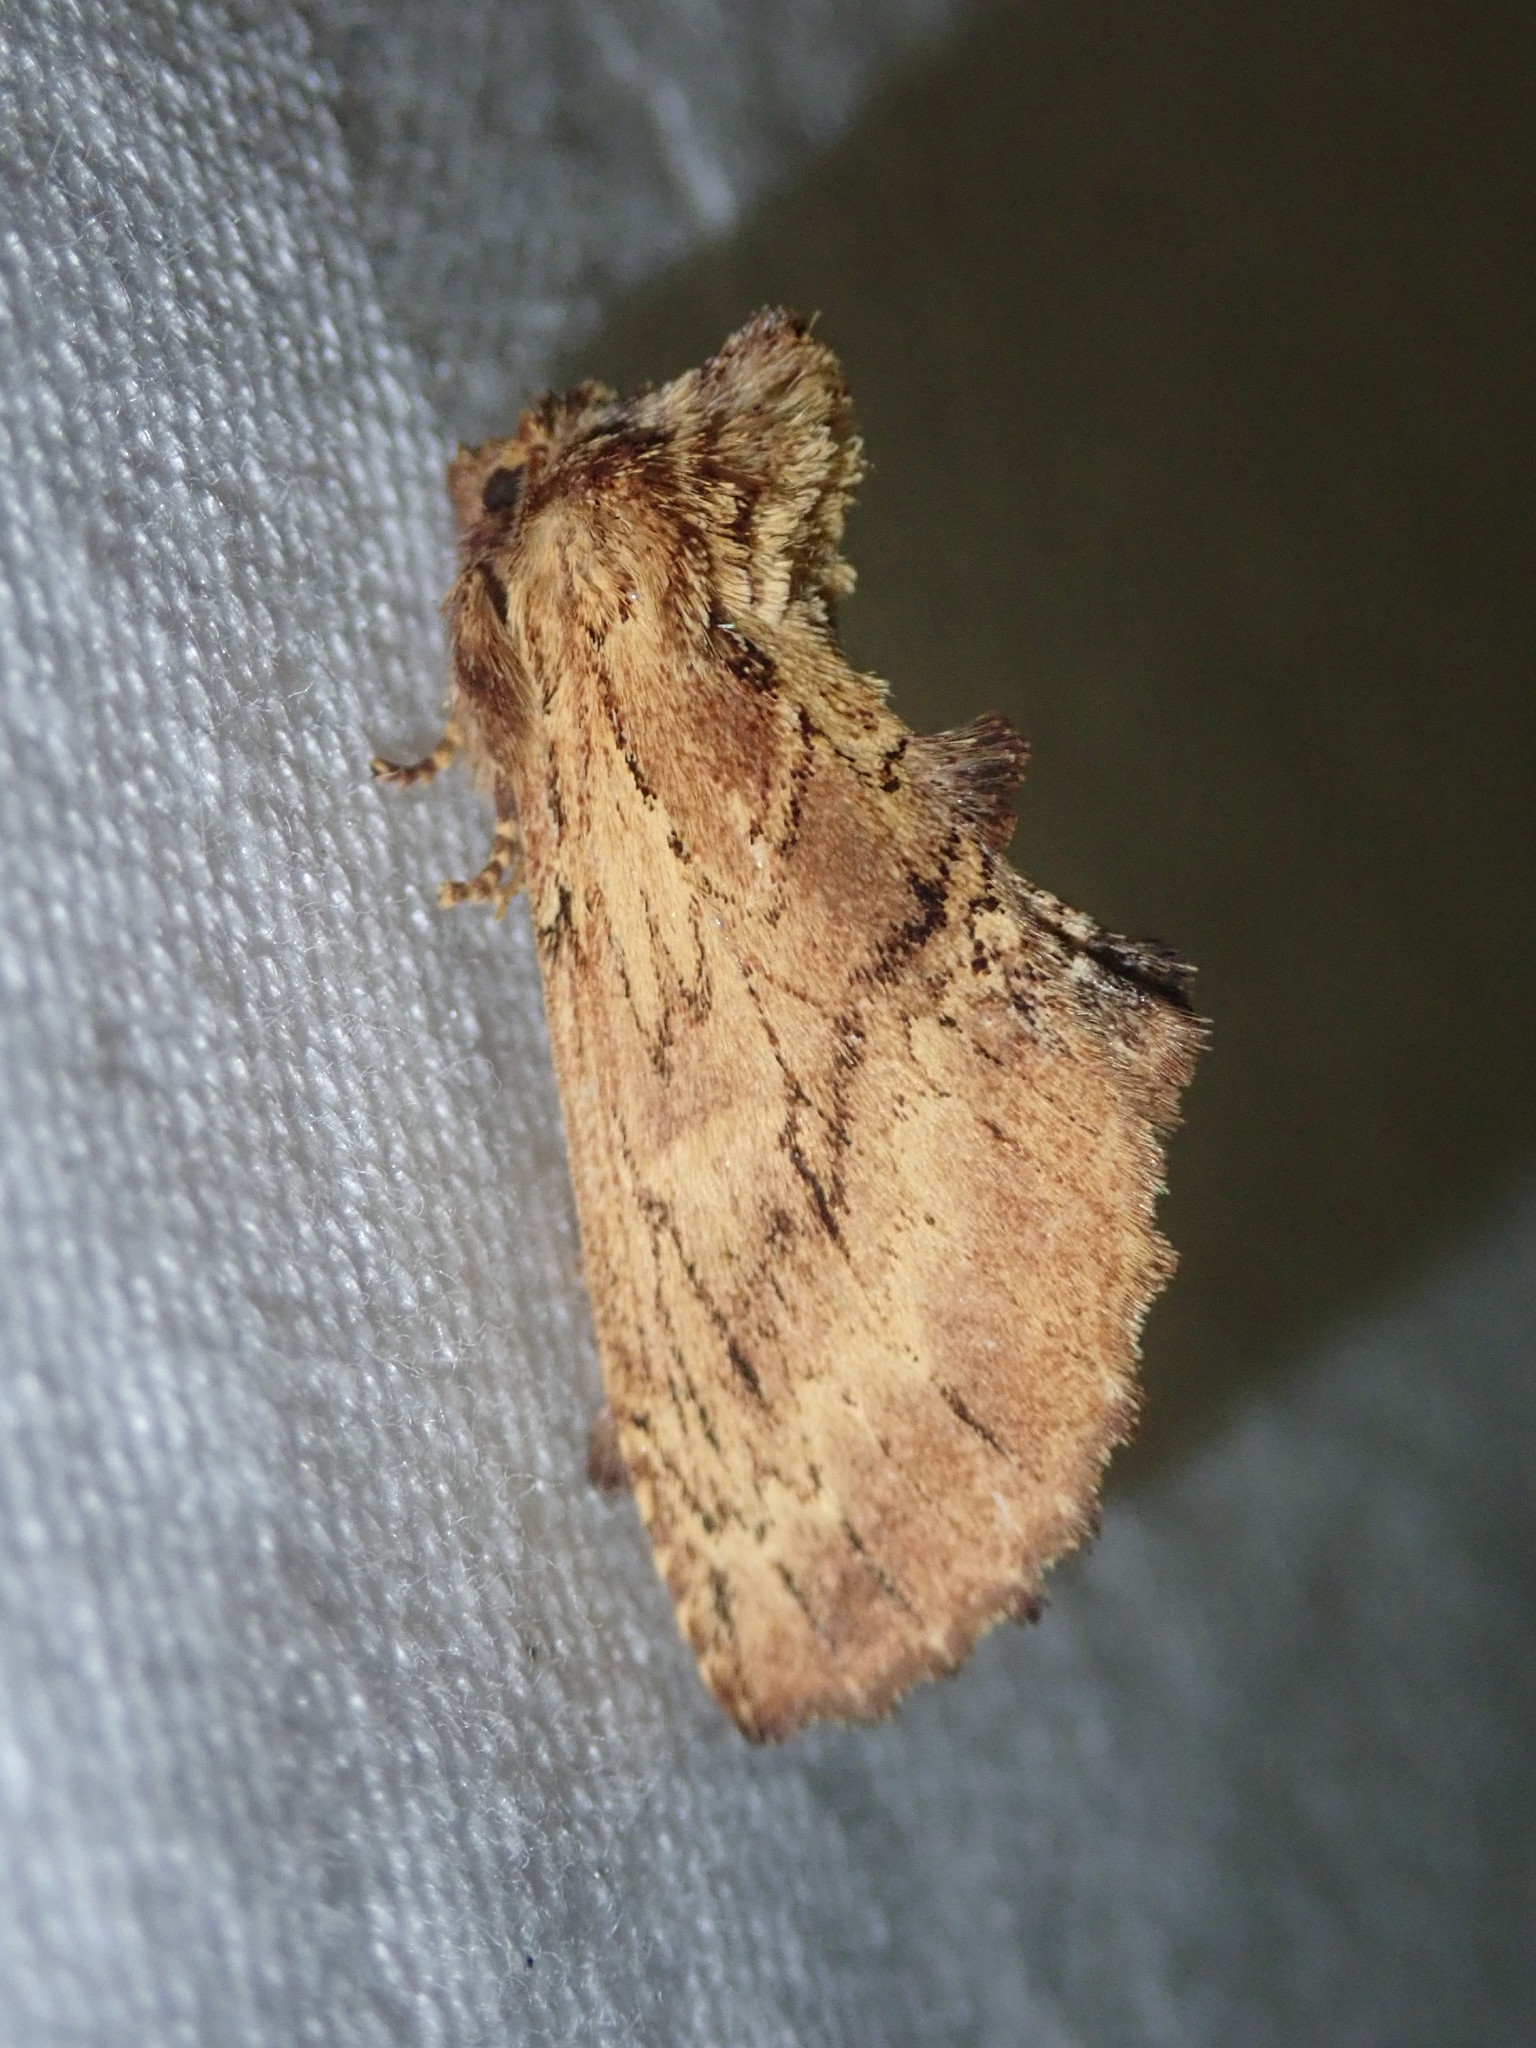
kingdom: Animalia
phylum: Arthropoda
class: Insecta
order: Lepidoptera
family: Notodontidae
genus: Ptilodon
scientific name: Ptilodon capucina
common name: Coxcomb prominent
